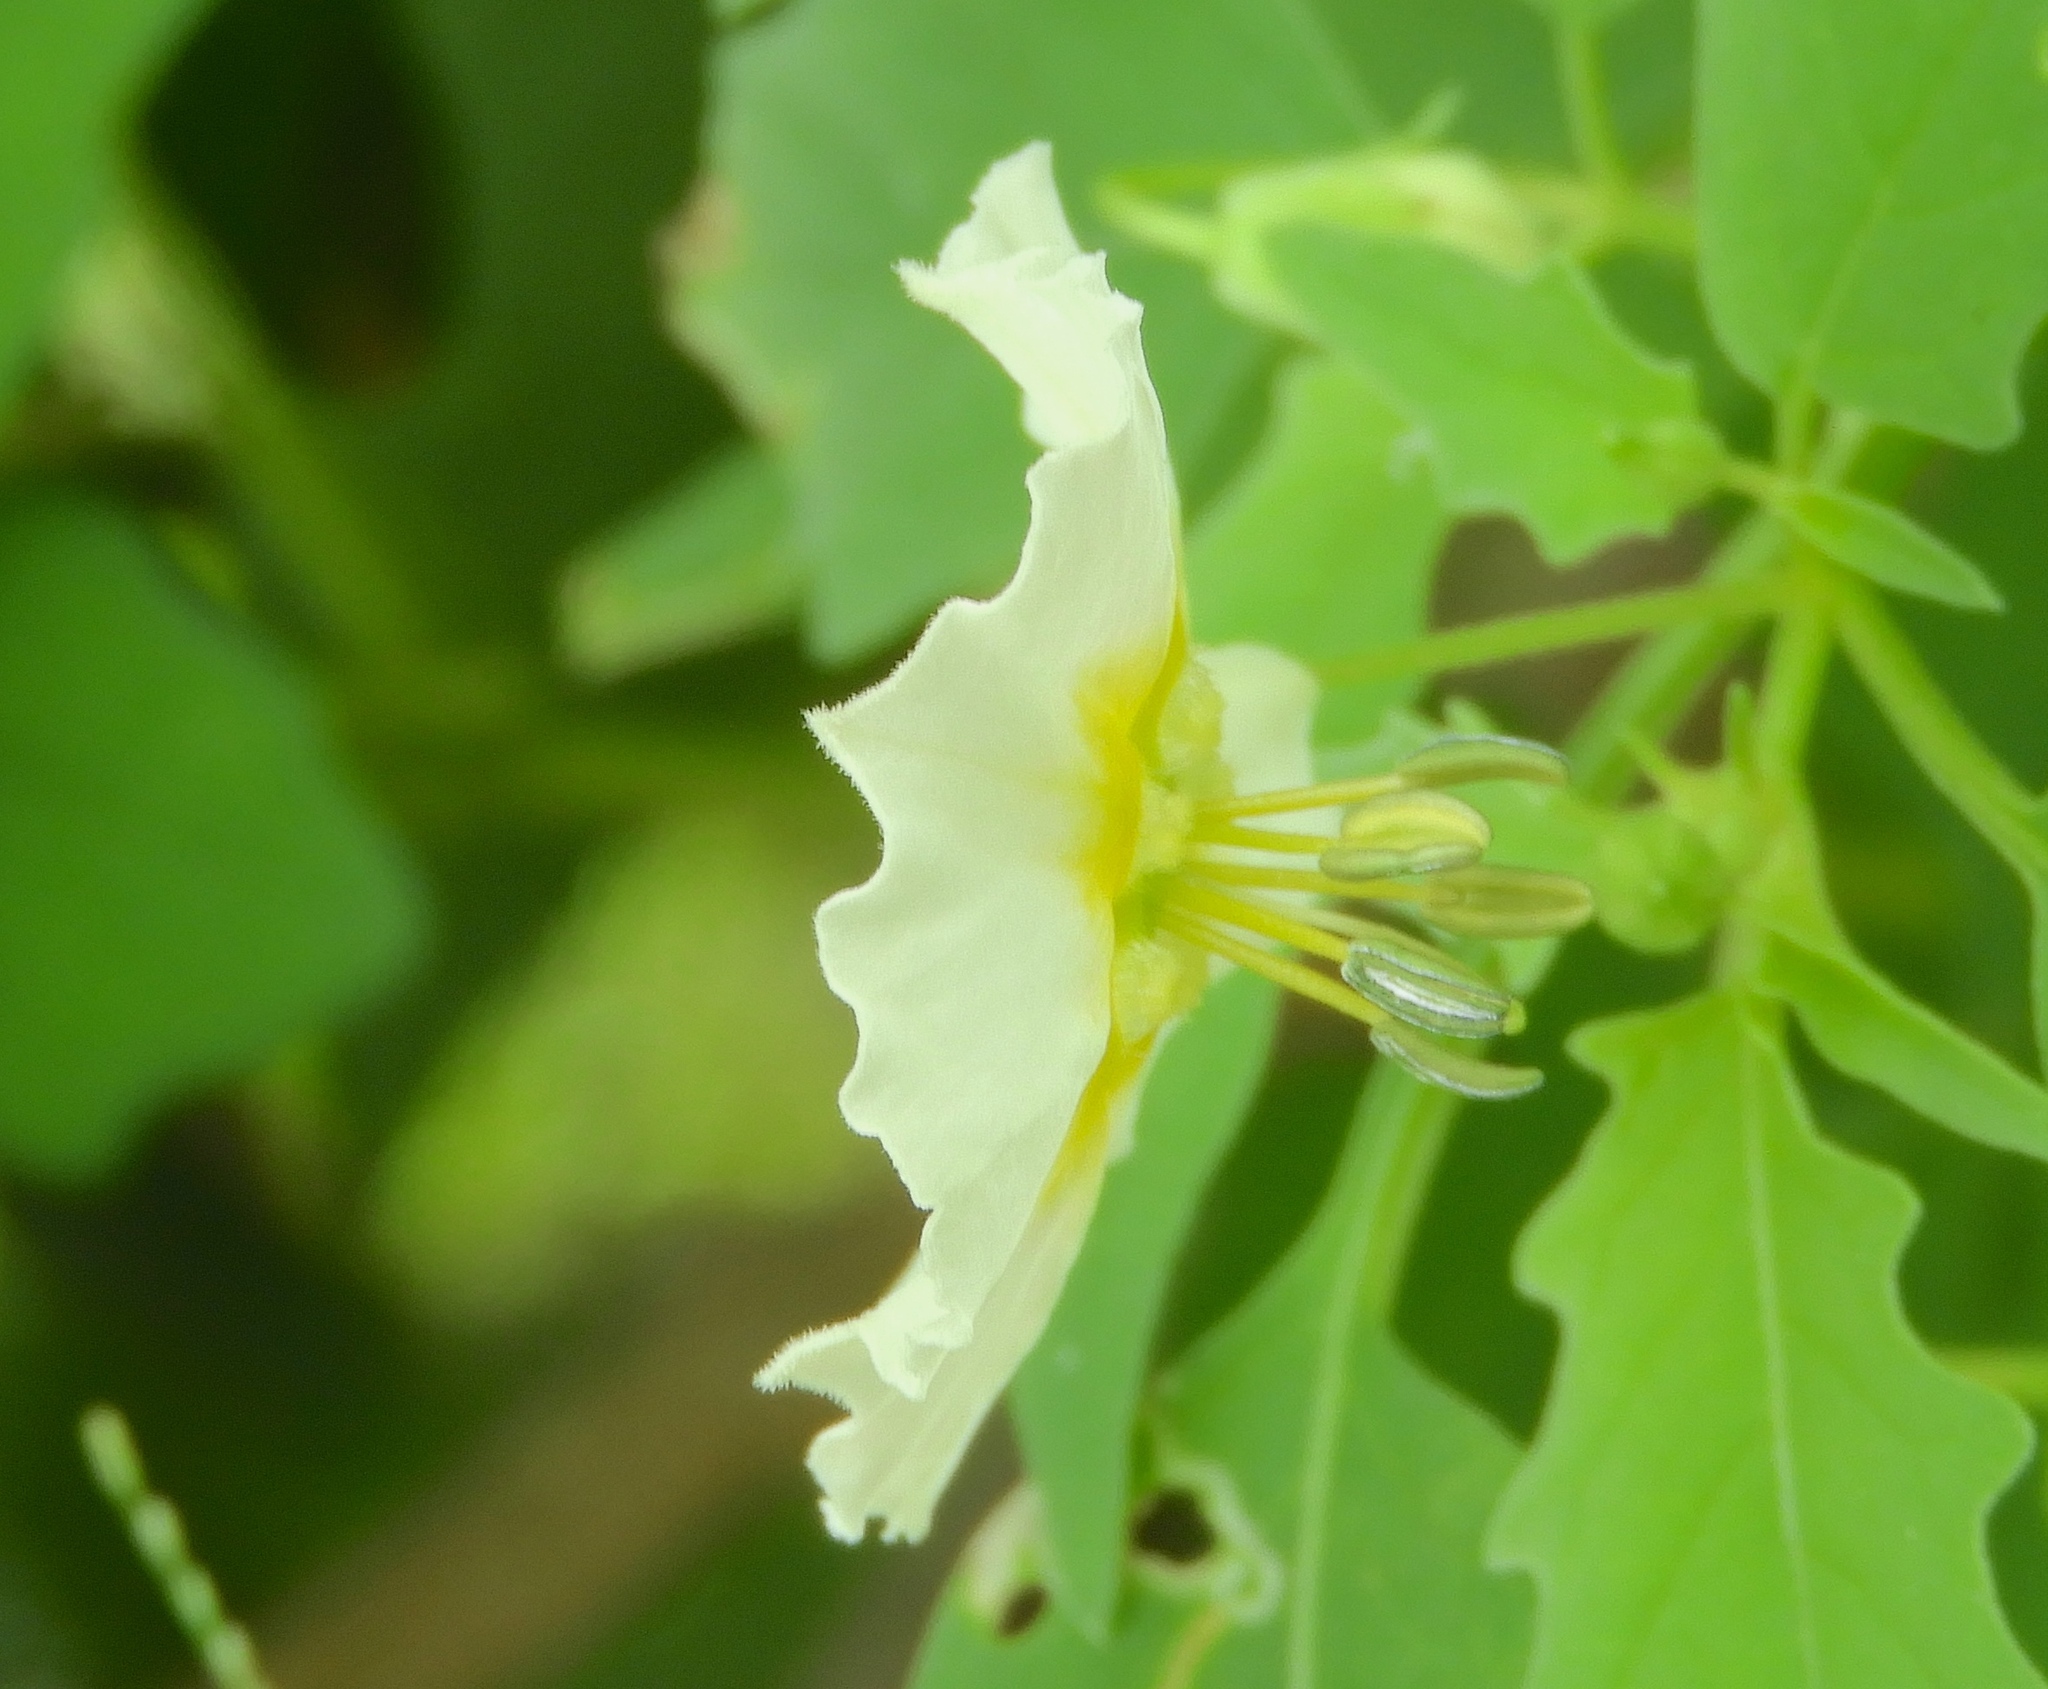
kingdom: Plantae
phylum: Tracheophyta
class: Magnoliopsida
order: Solanales
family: Solanaceae
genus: Physalis
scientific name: Physalis acutifolia
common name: Wright's ground-cherry
